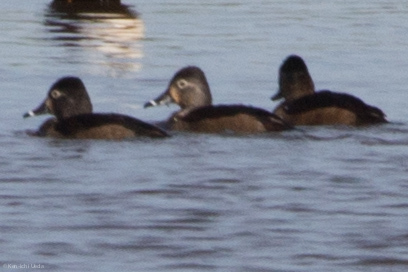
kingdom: Animalia
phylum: Chordata
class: Aves
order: Anseriformes
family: Anatidae
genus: Aythya
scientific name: Aythya collaris
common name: Ring-necked duck
